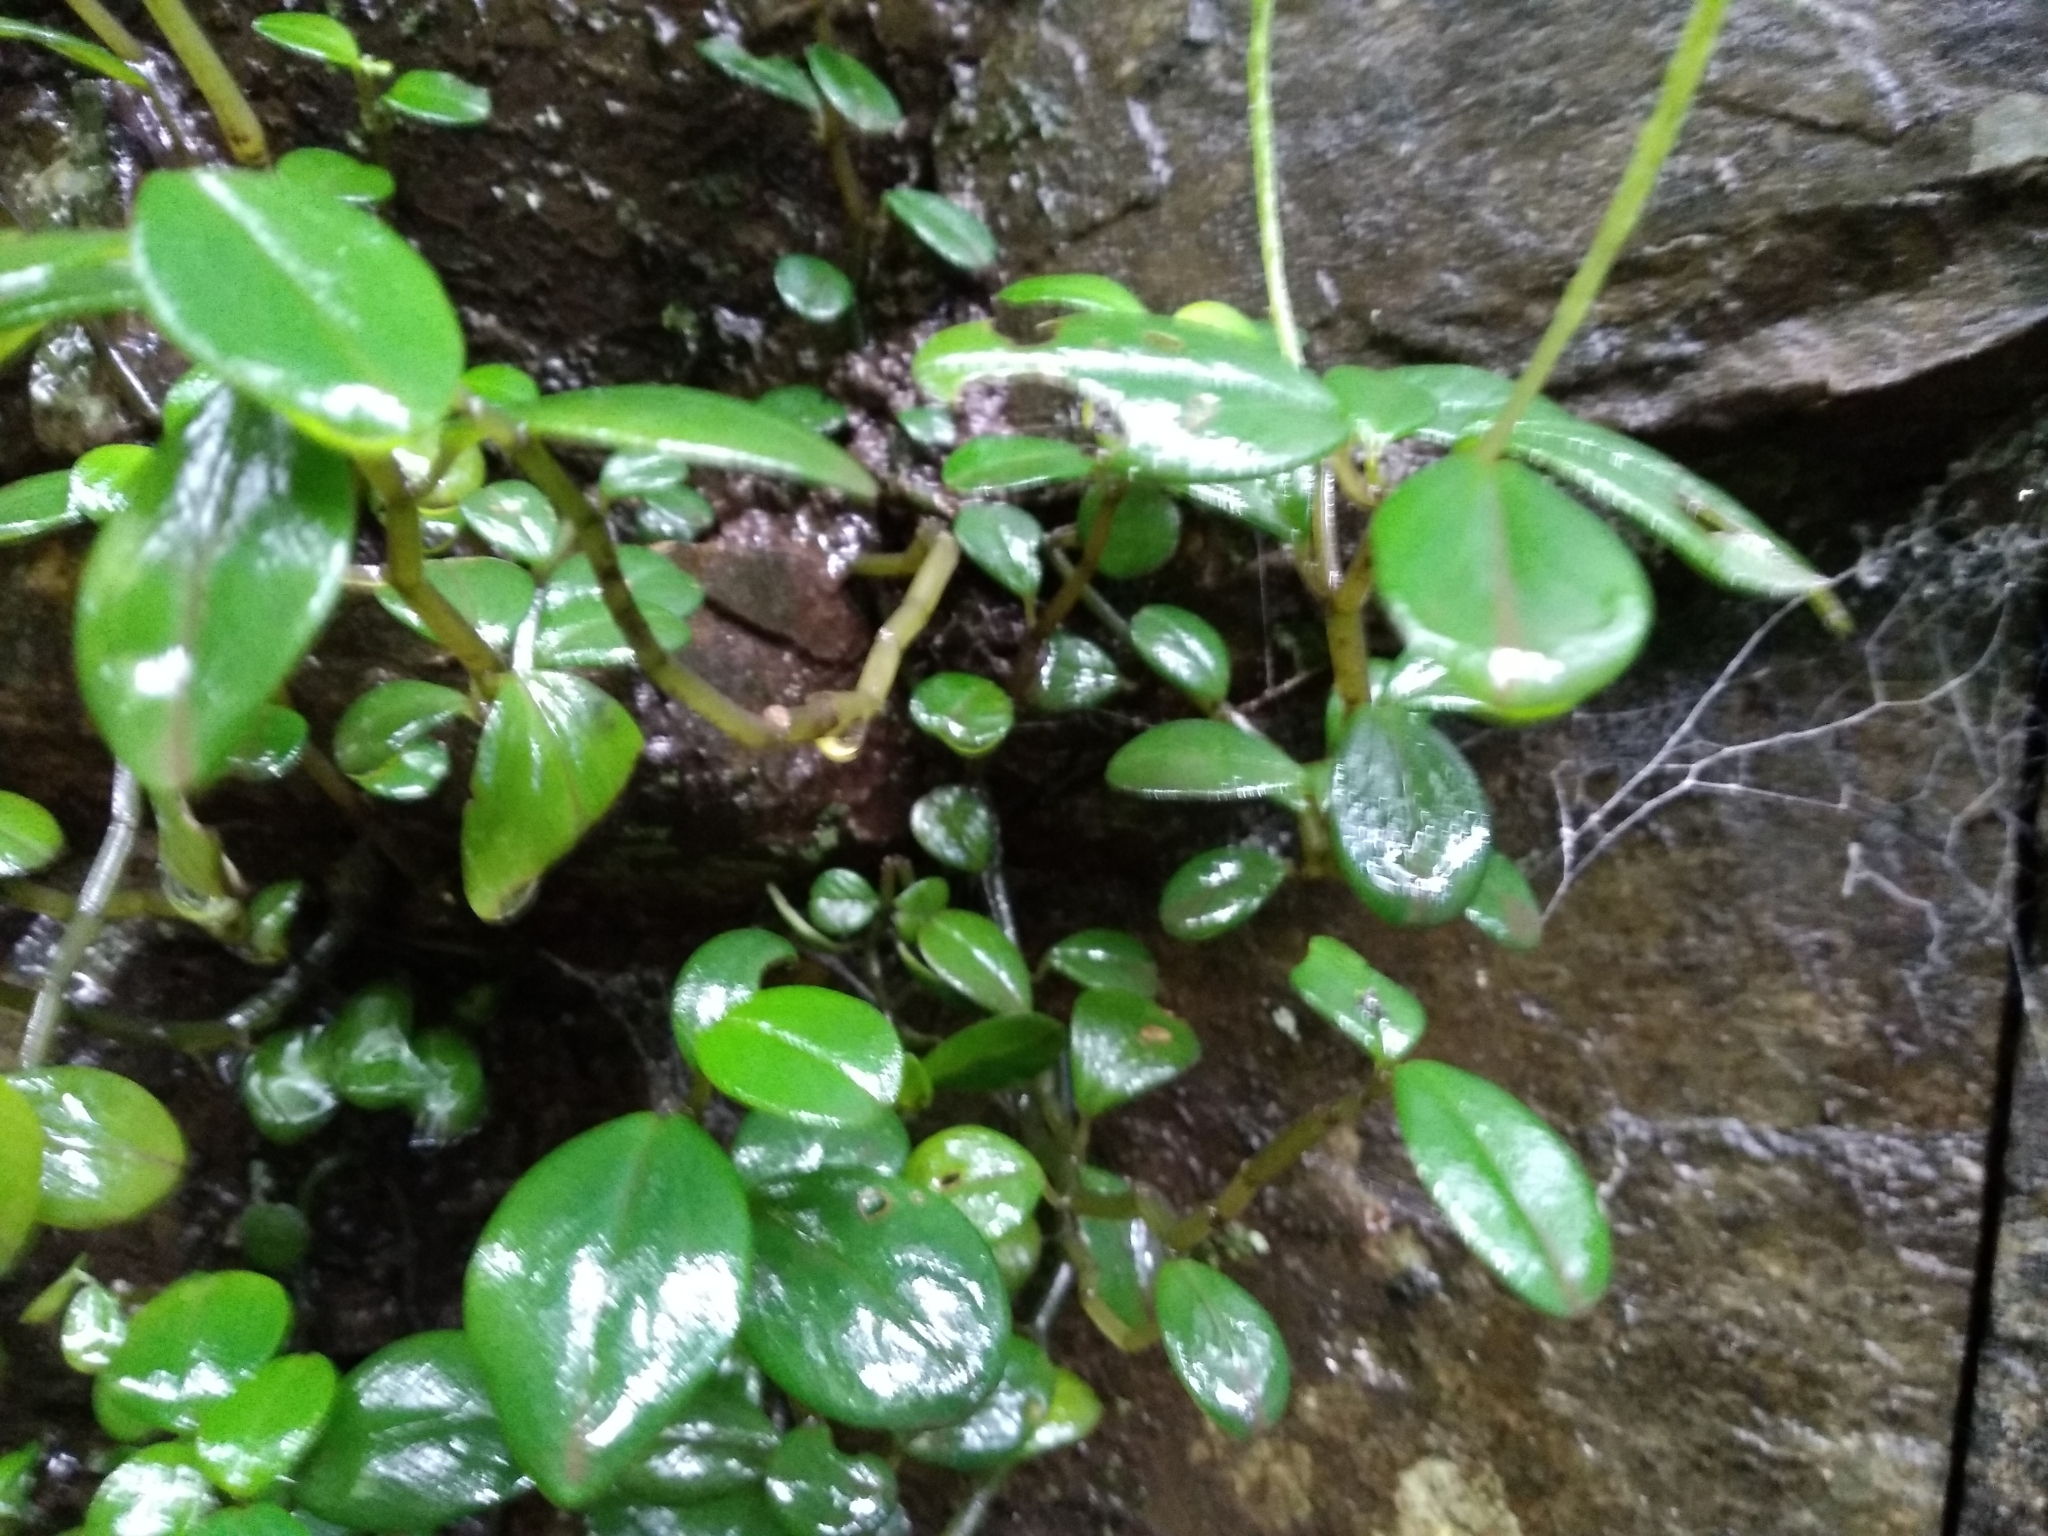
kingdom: Plantae
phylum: Tracheophyta
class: Magnoliopsida
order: Piperales
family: Piperaceae
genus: Peperomia
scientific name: Peperomia retusa
